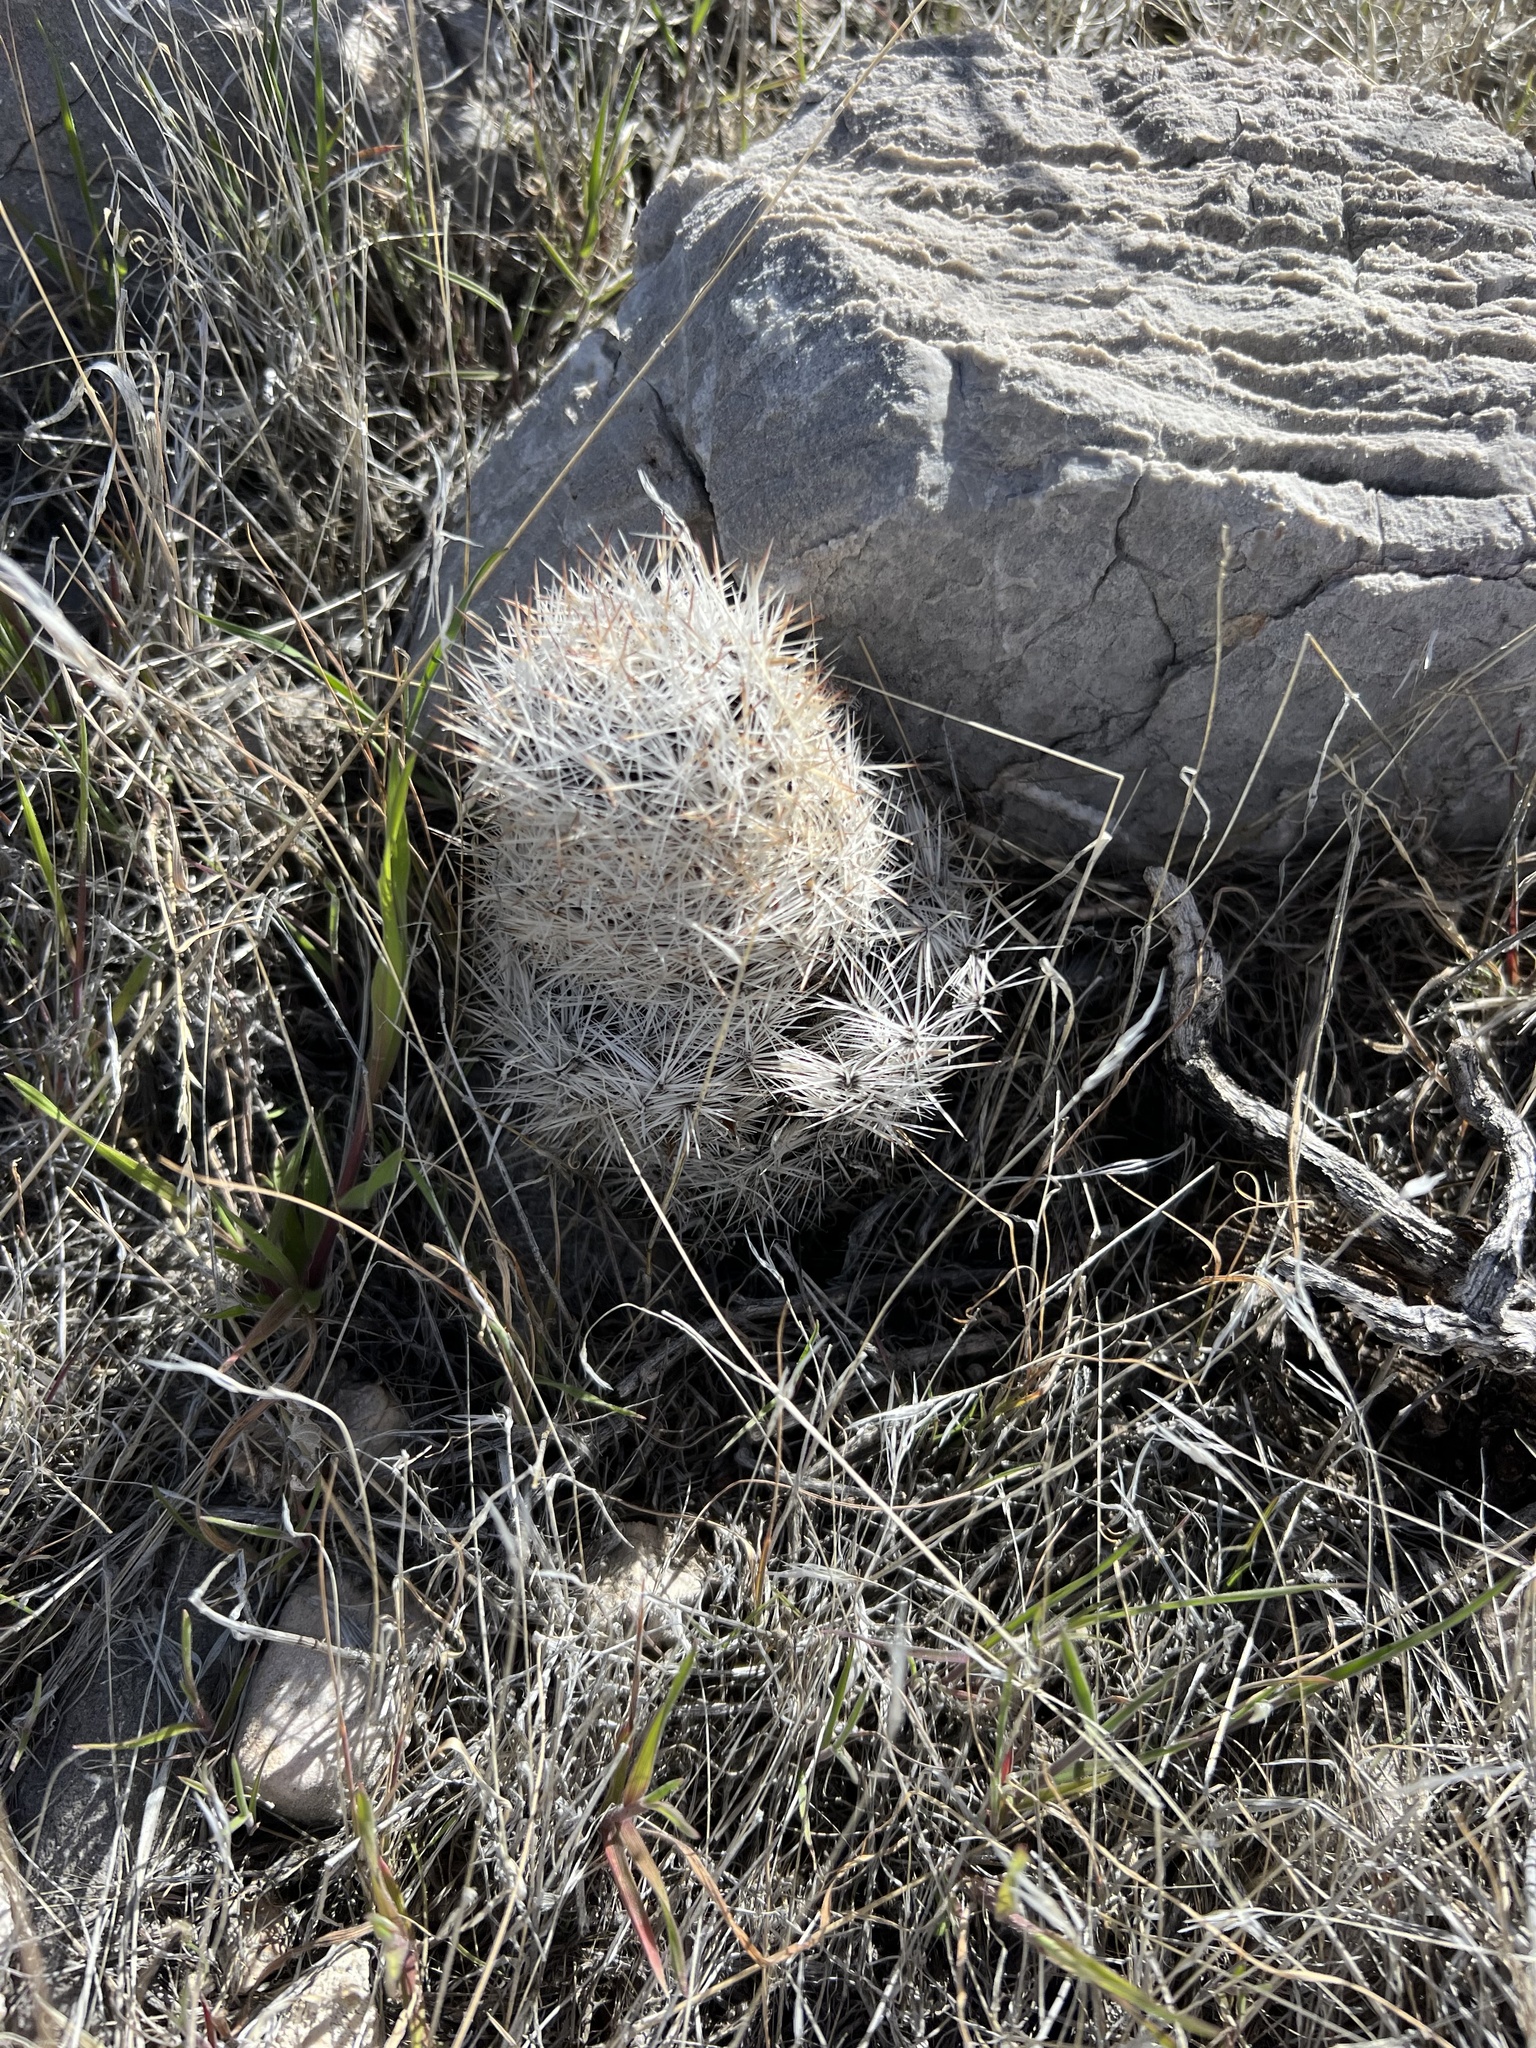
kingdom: Plantae
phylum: Tracheophyta
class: Magnoliopsida
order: Caryophyllales
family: Cactaceae
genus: Pelecyphora
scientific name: Pelecyphora dasyacantha
